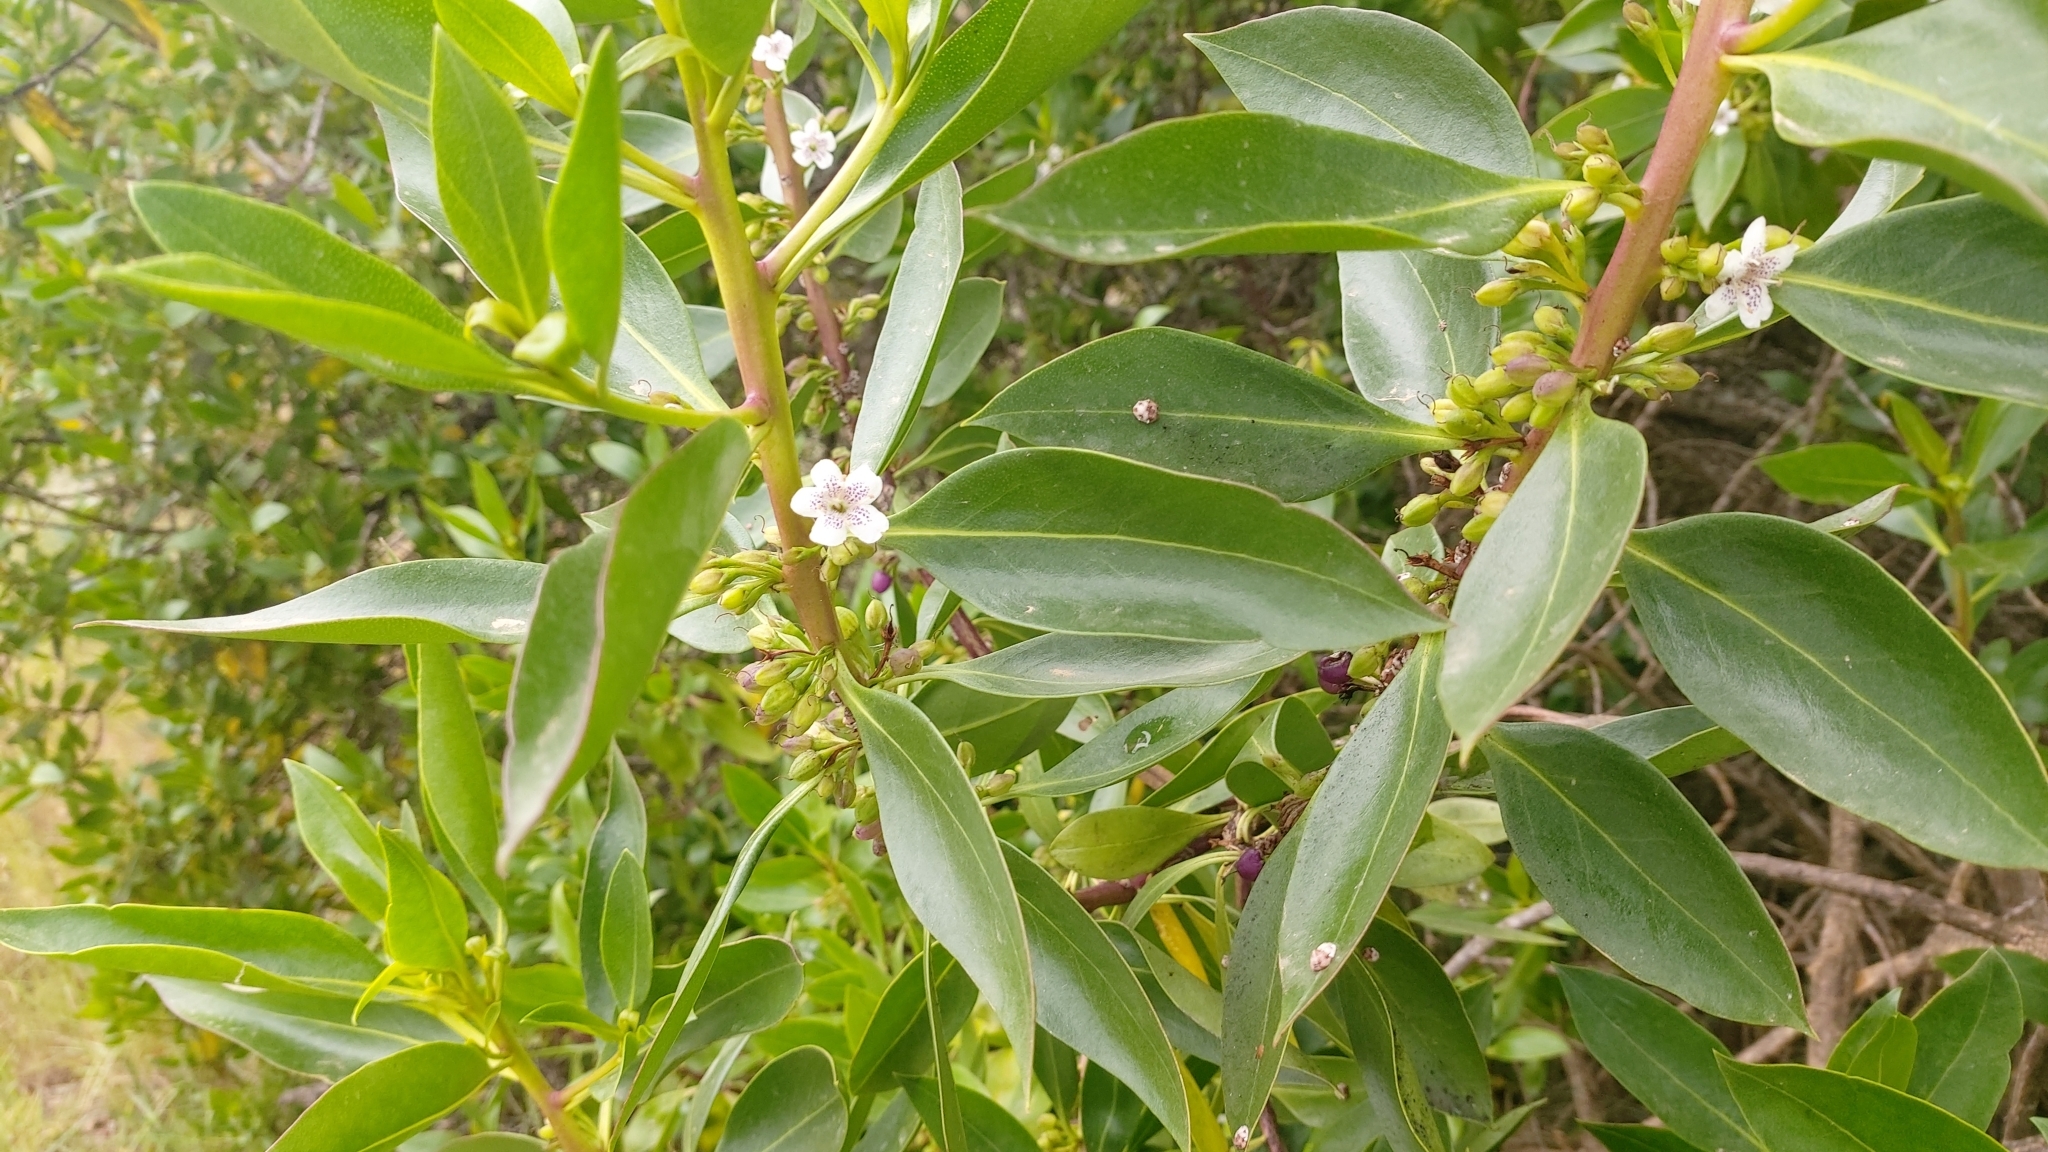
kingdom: Plantae
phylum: Tracheophyta
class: Magnoliopsida
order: Lamiales
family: Scrophulariaceae
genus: Myoporum
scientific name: Myoporum laetum
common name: Ngaio tree
